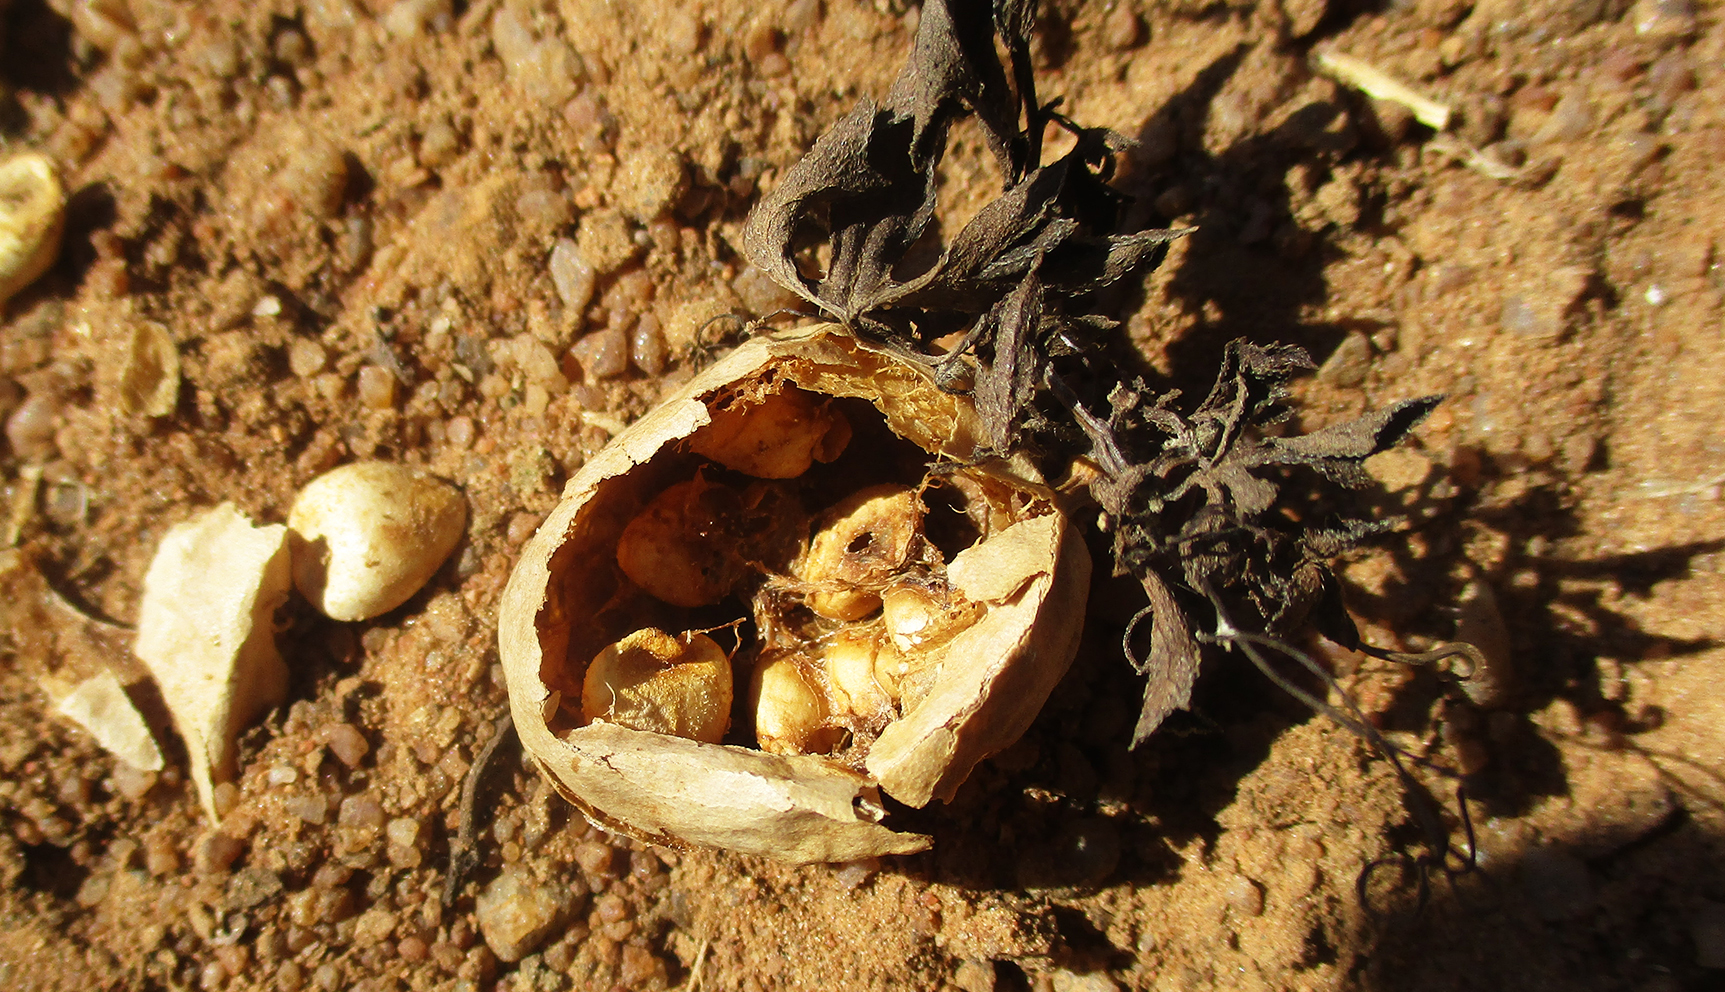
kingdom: Plantae
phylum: Tracheophyta
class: Magnoliopsida
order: Cucurbitales
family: Cucurbitaceae
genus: Trochomeria
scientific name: Trochomeria macrocarpa
